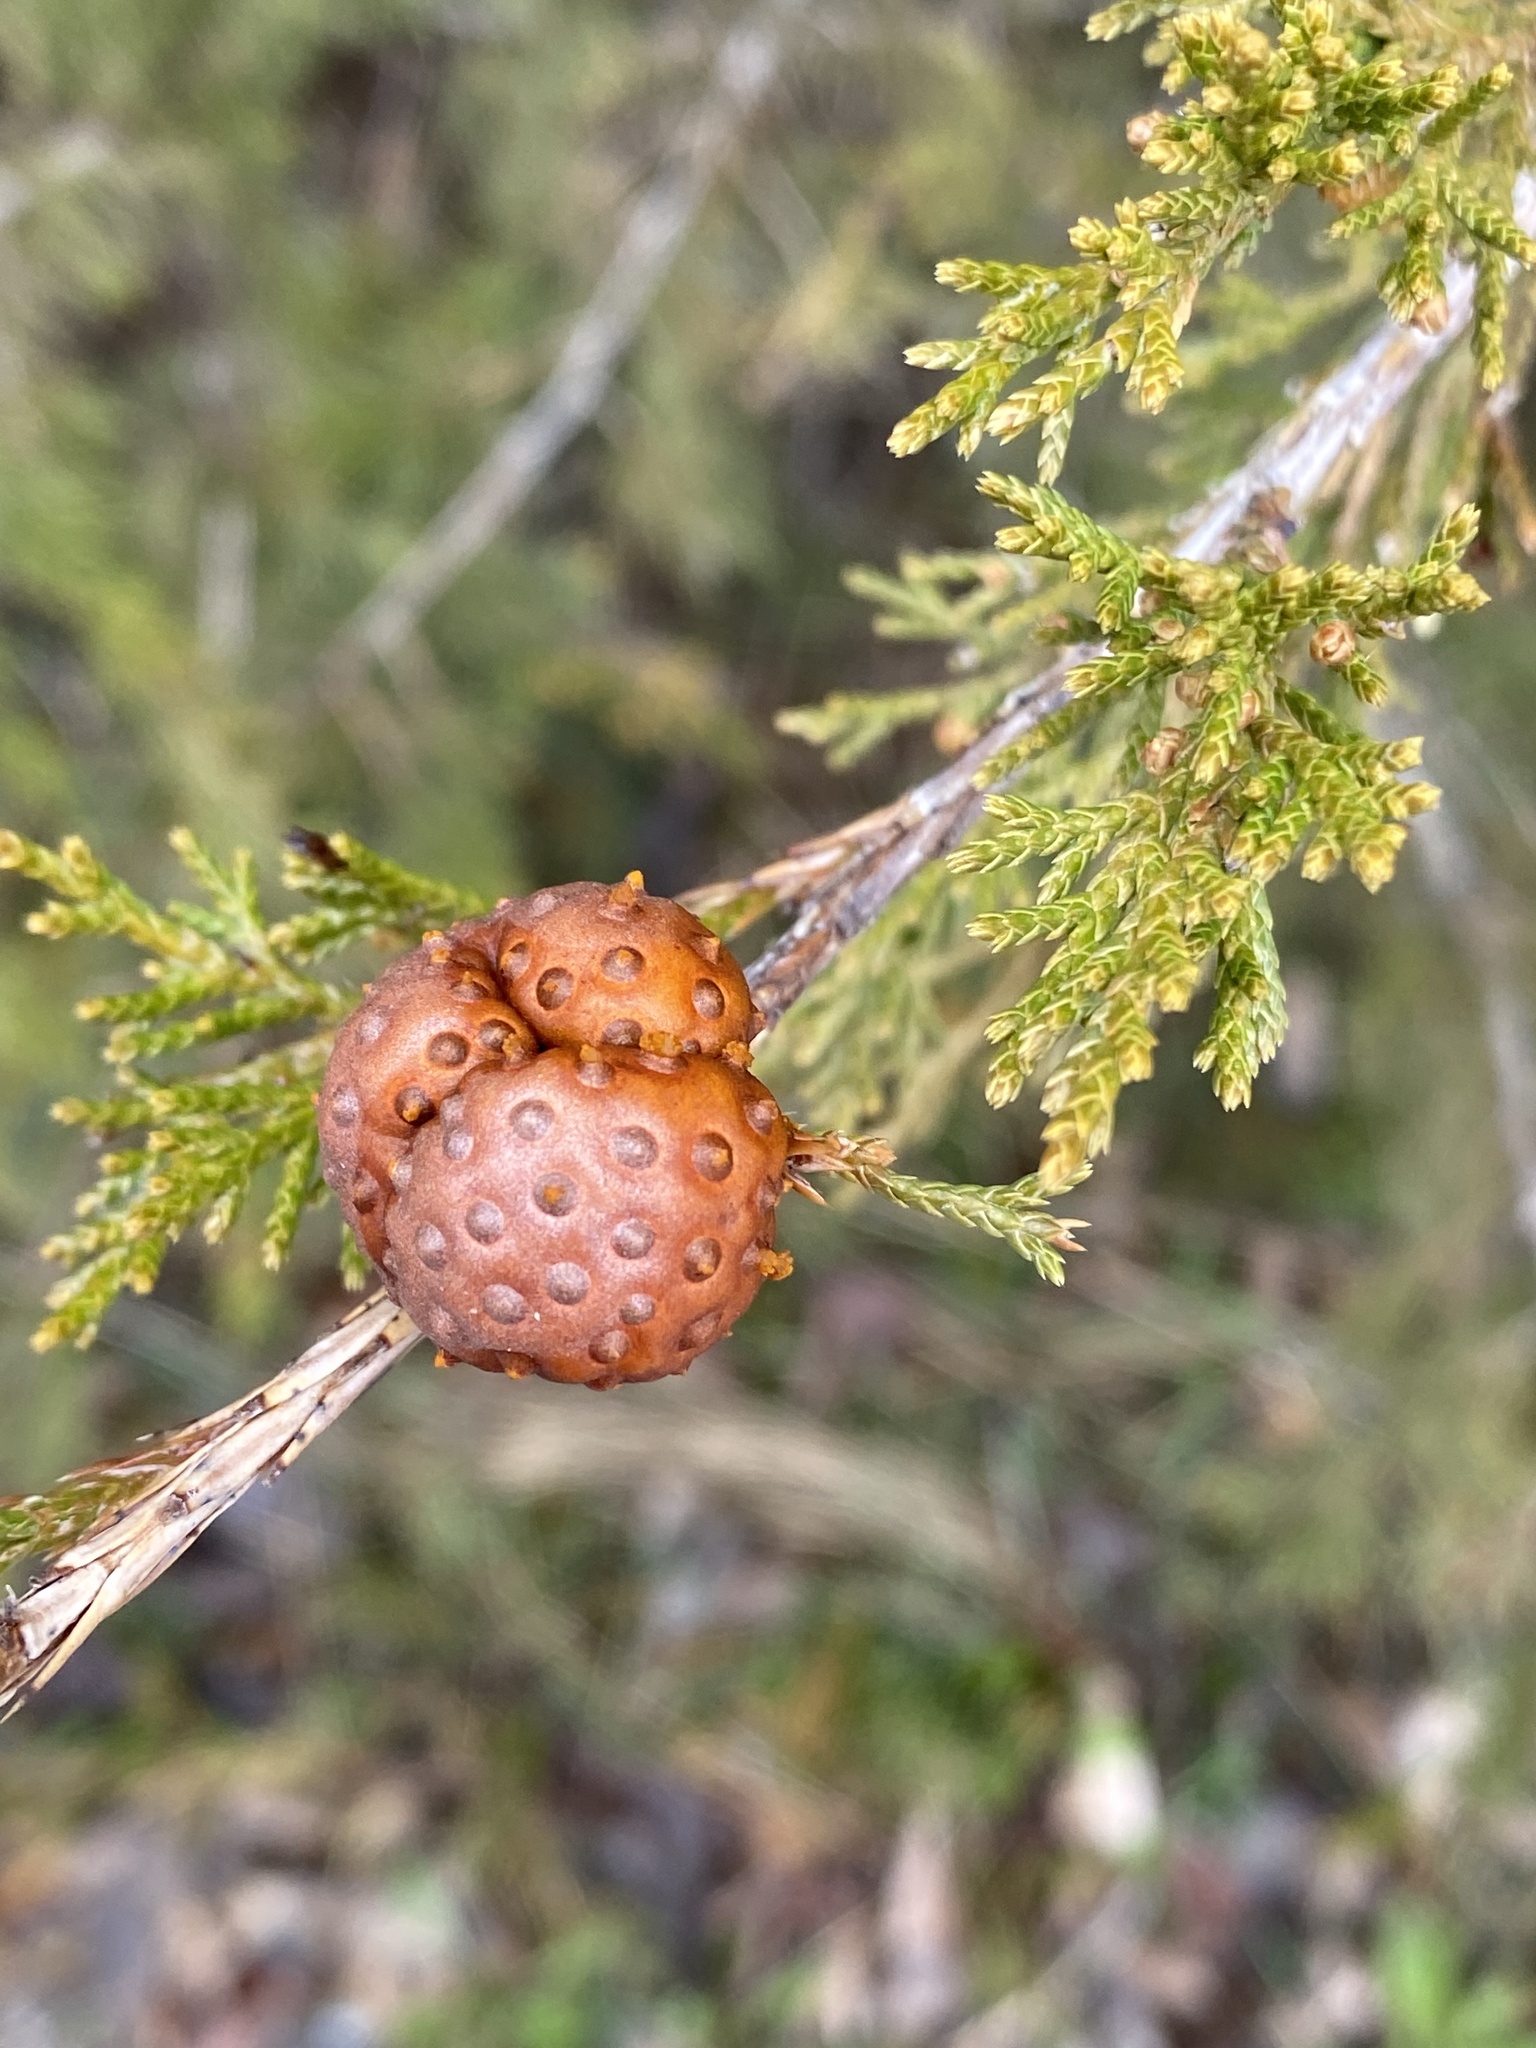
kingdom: Fungi
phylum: Basidiomycota
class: Pucciniomycetes
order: Pucciniales
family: Gymnosporangiaceae
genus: Gymnosporangium
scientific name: Gymnosporangium juniperi-virginianae
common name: Juniper-apple rust
